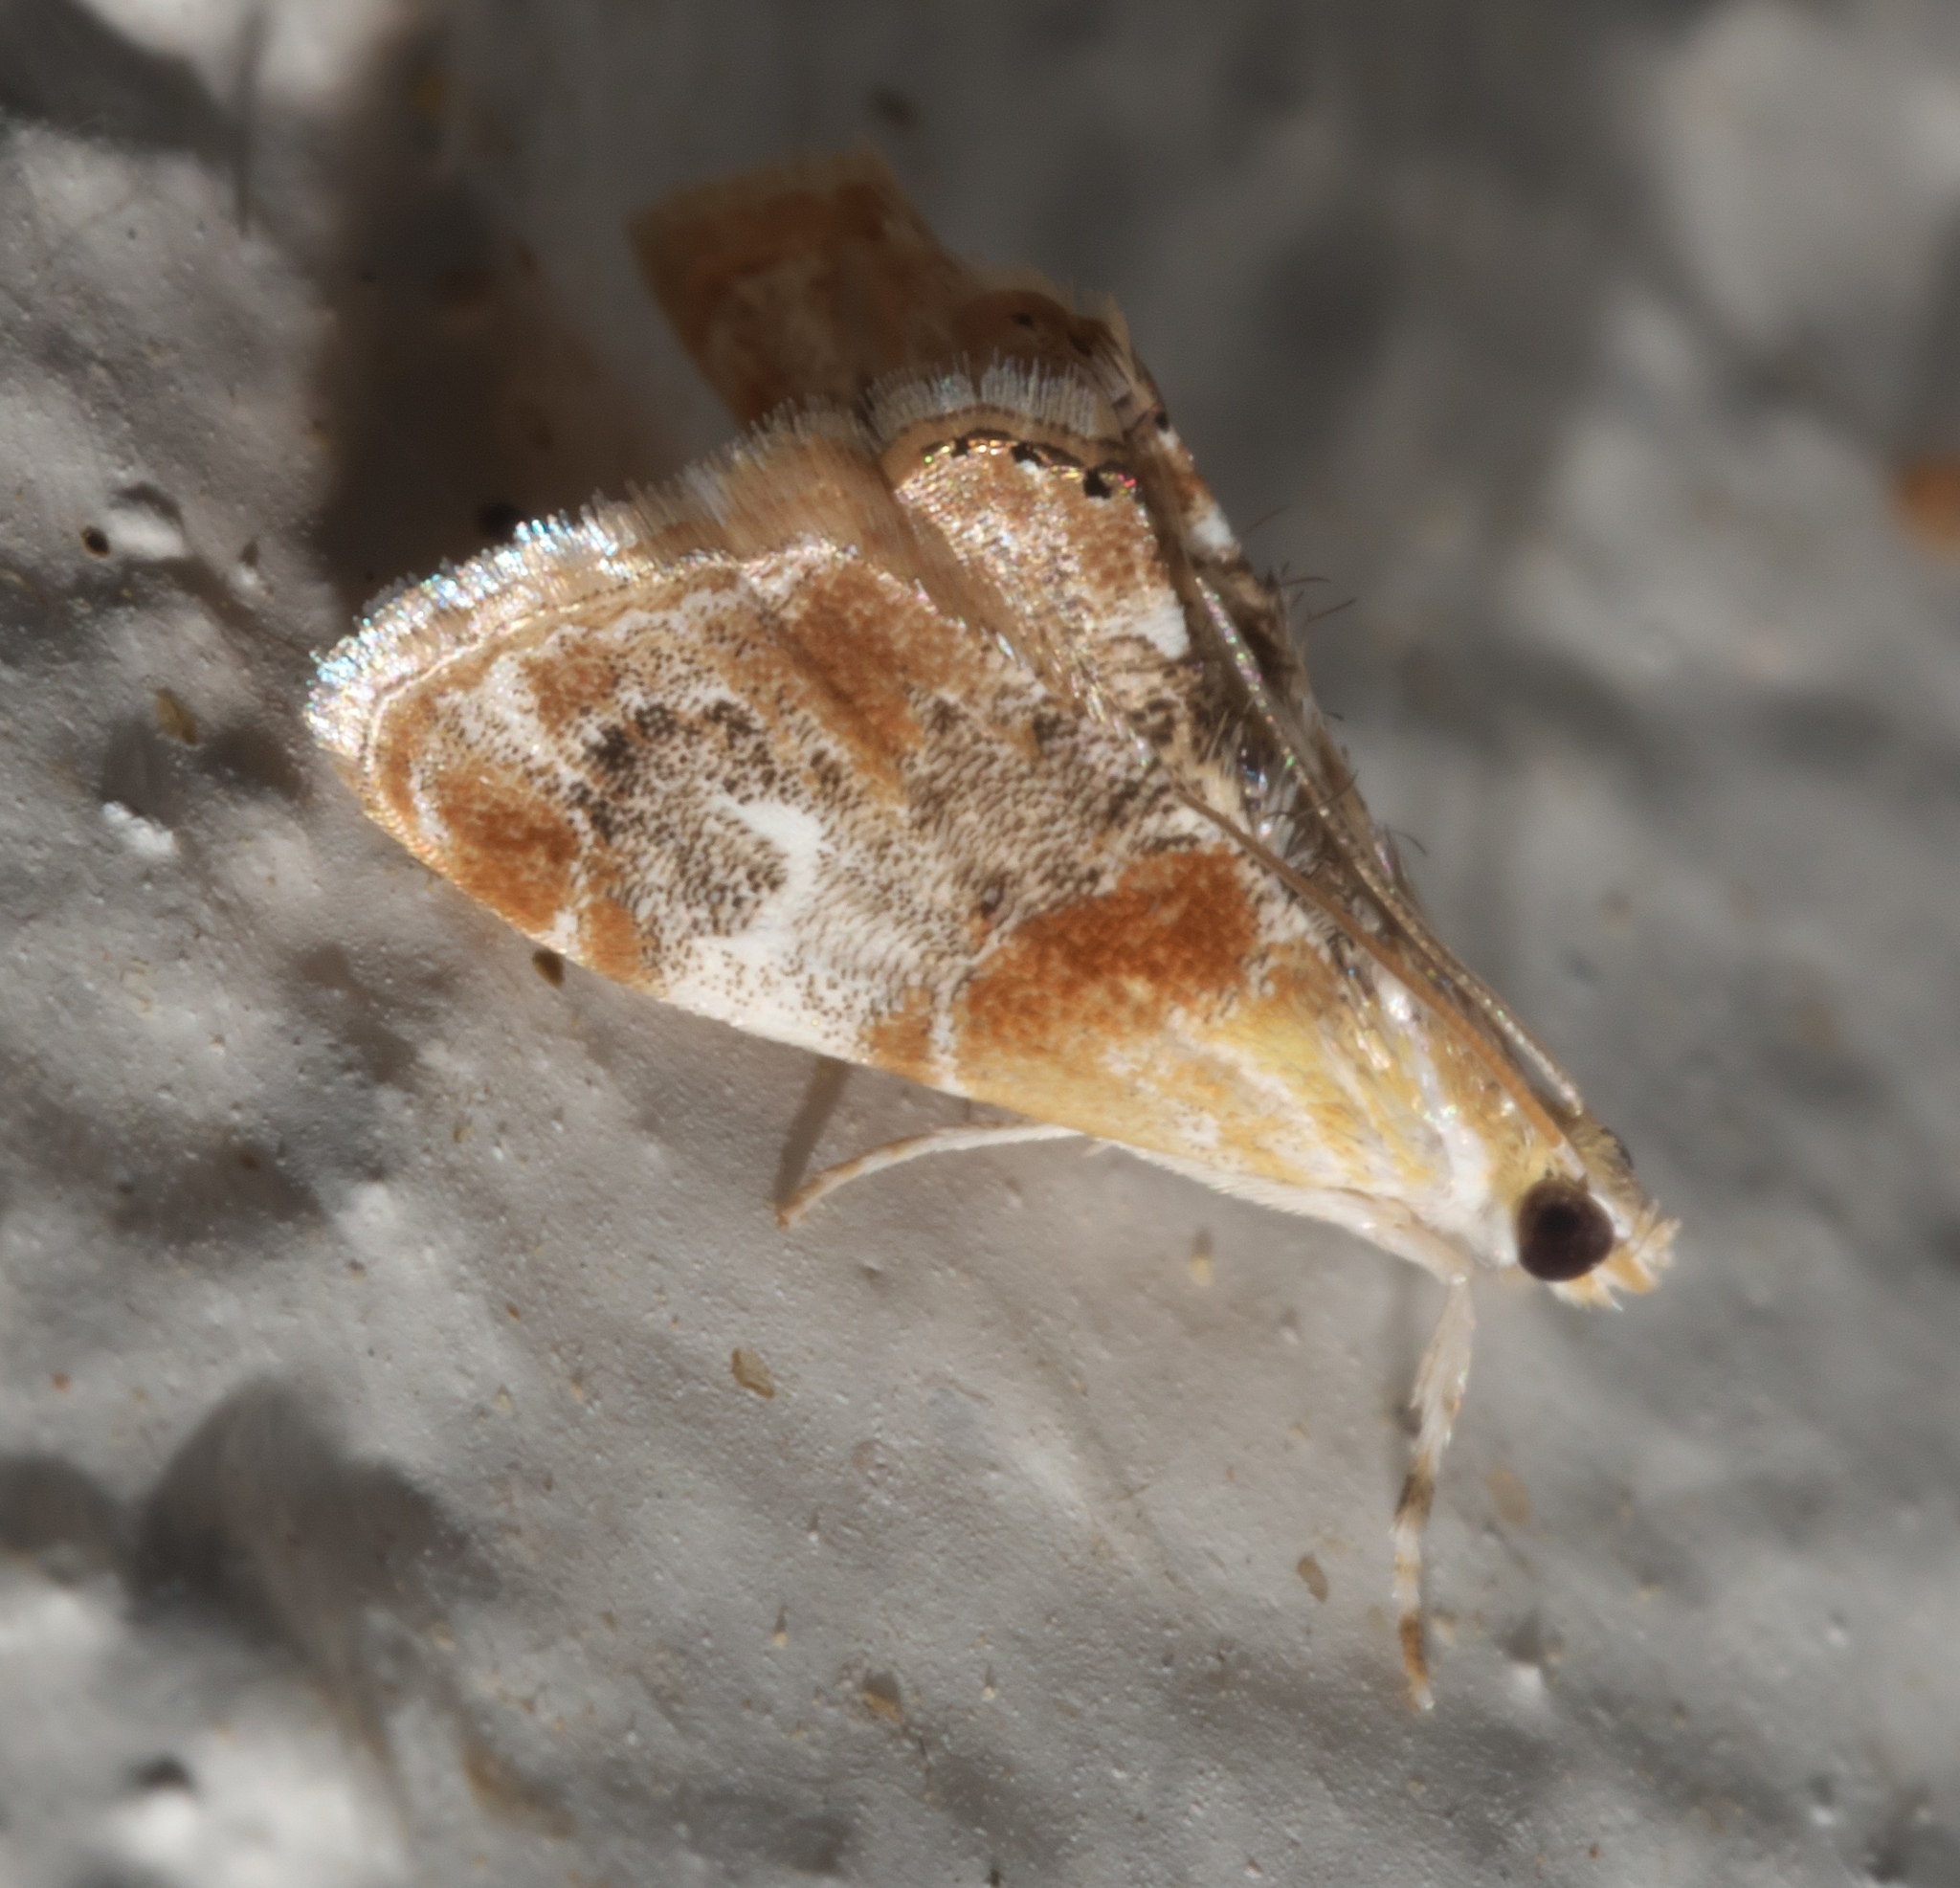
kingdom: Animalia
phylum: Arthropoda
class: Insecta
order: Lepidoptera
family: Crambidae
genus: Dicymolomia
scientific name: Dicymolomia julianalis
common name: Julia's dicymolomia moth
